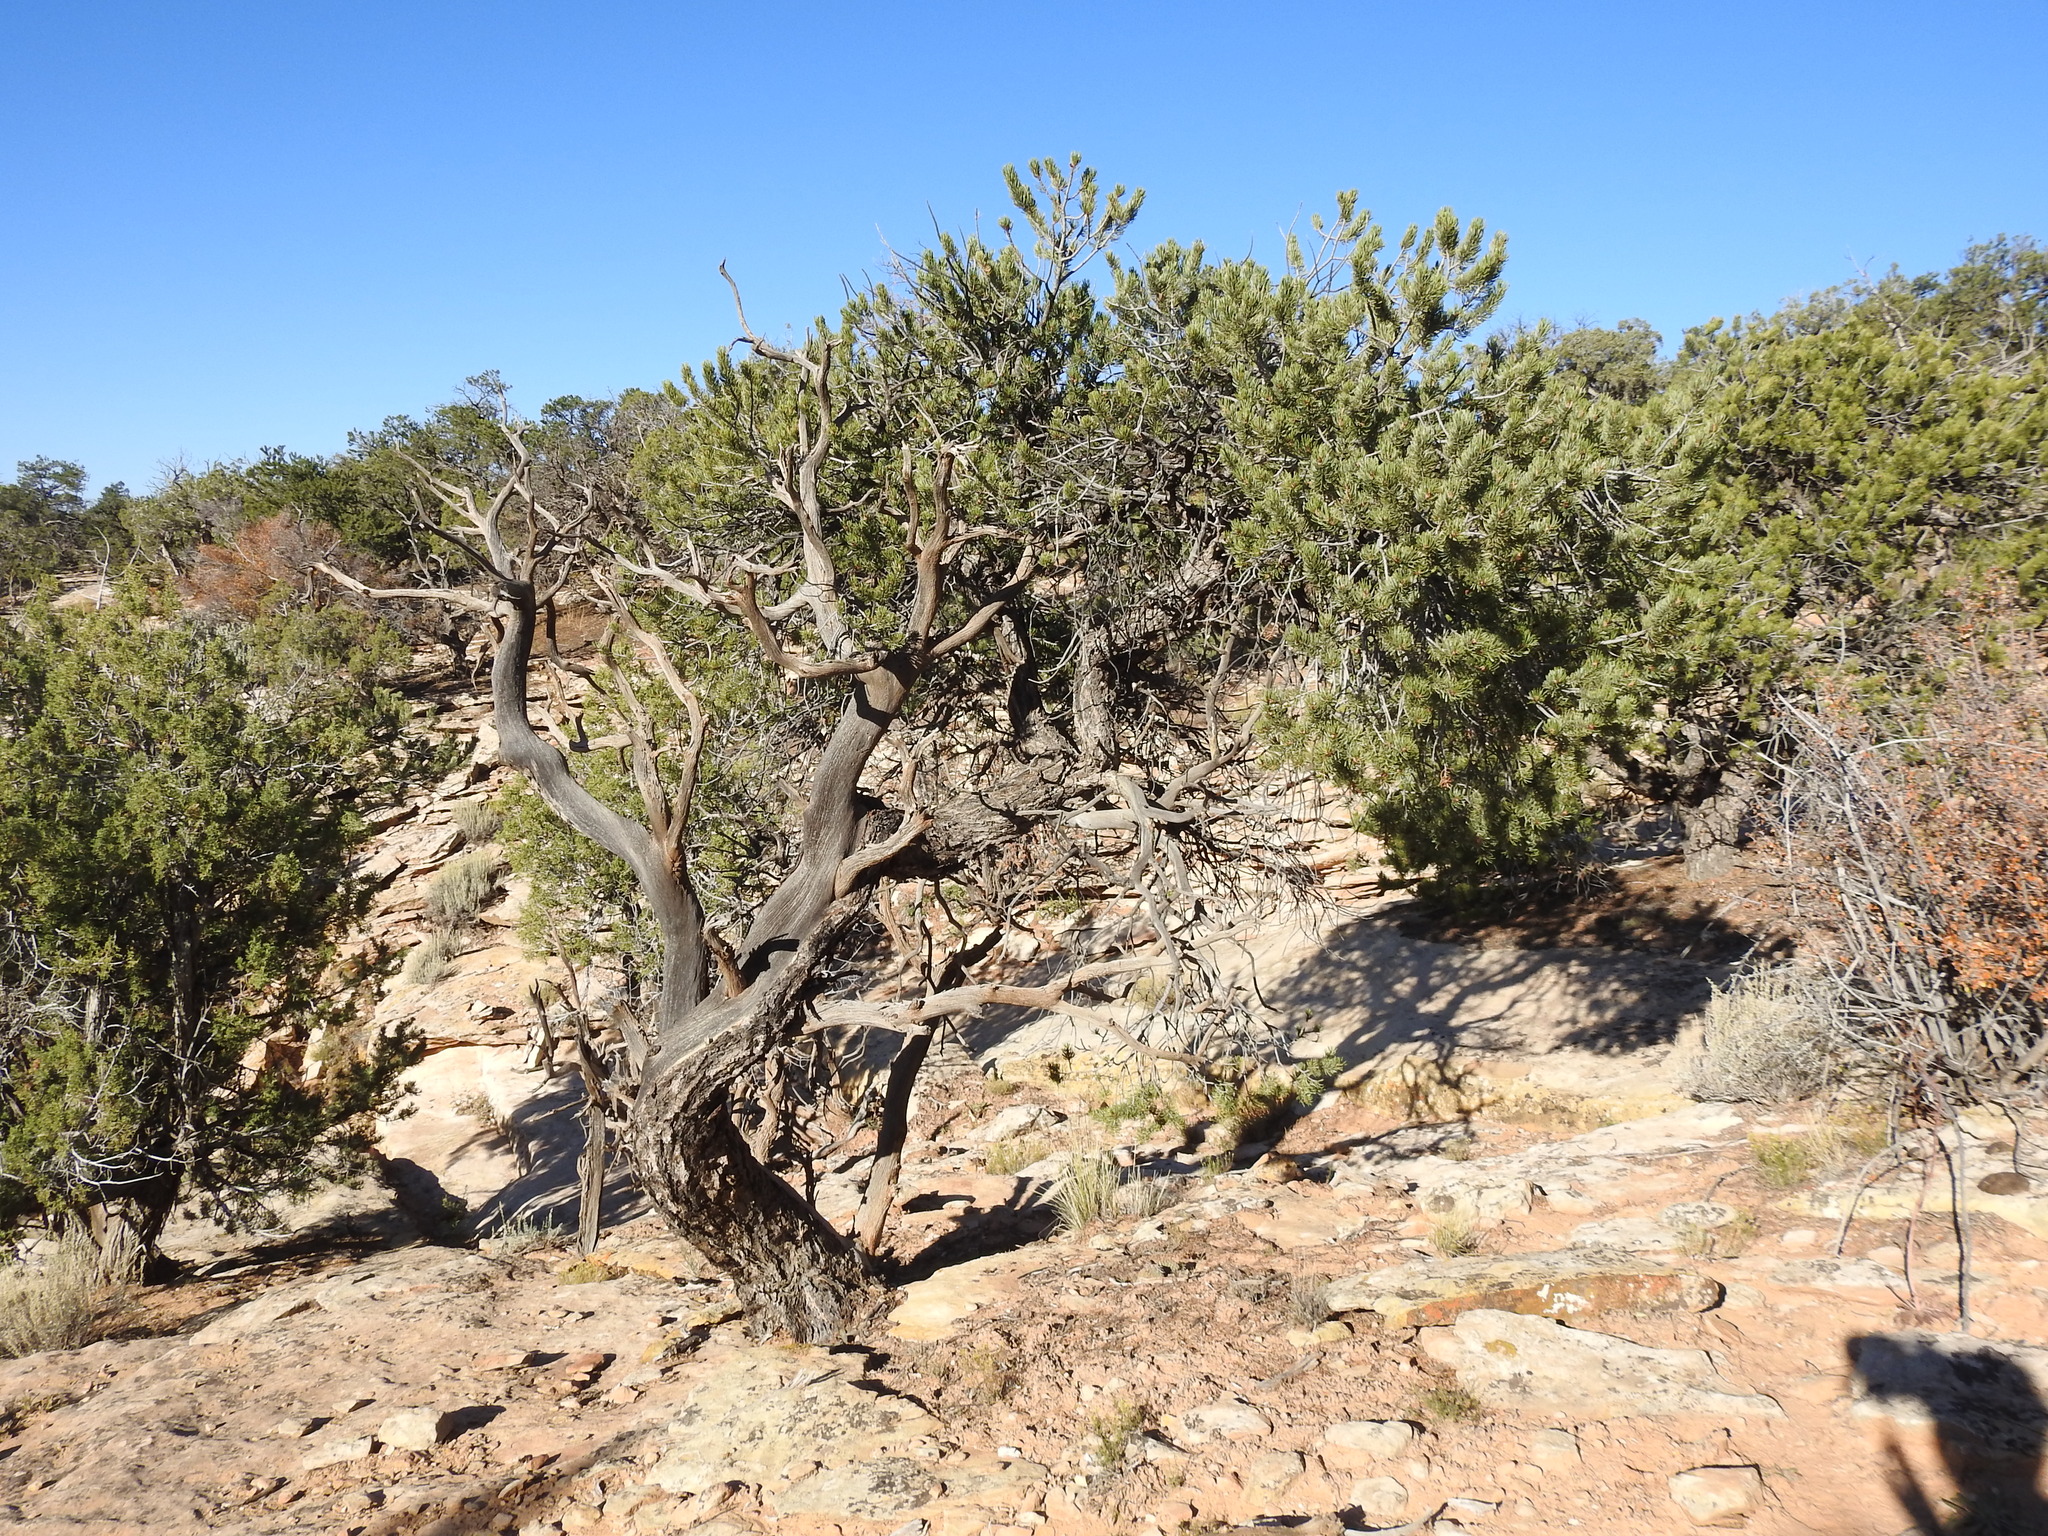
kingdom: Plantae
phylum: Tracheophyta
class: Pinopsida
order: Pinales
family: Pinaceae
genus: Pinus
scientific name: Pinus edulis
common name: Colorado pinyon
